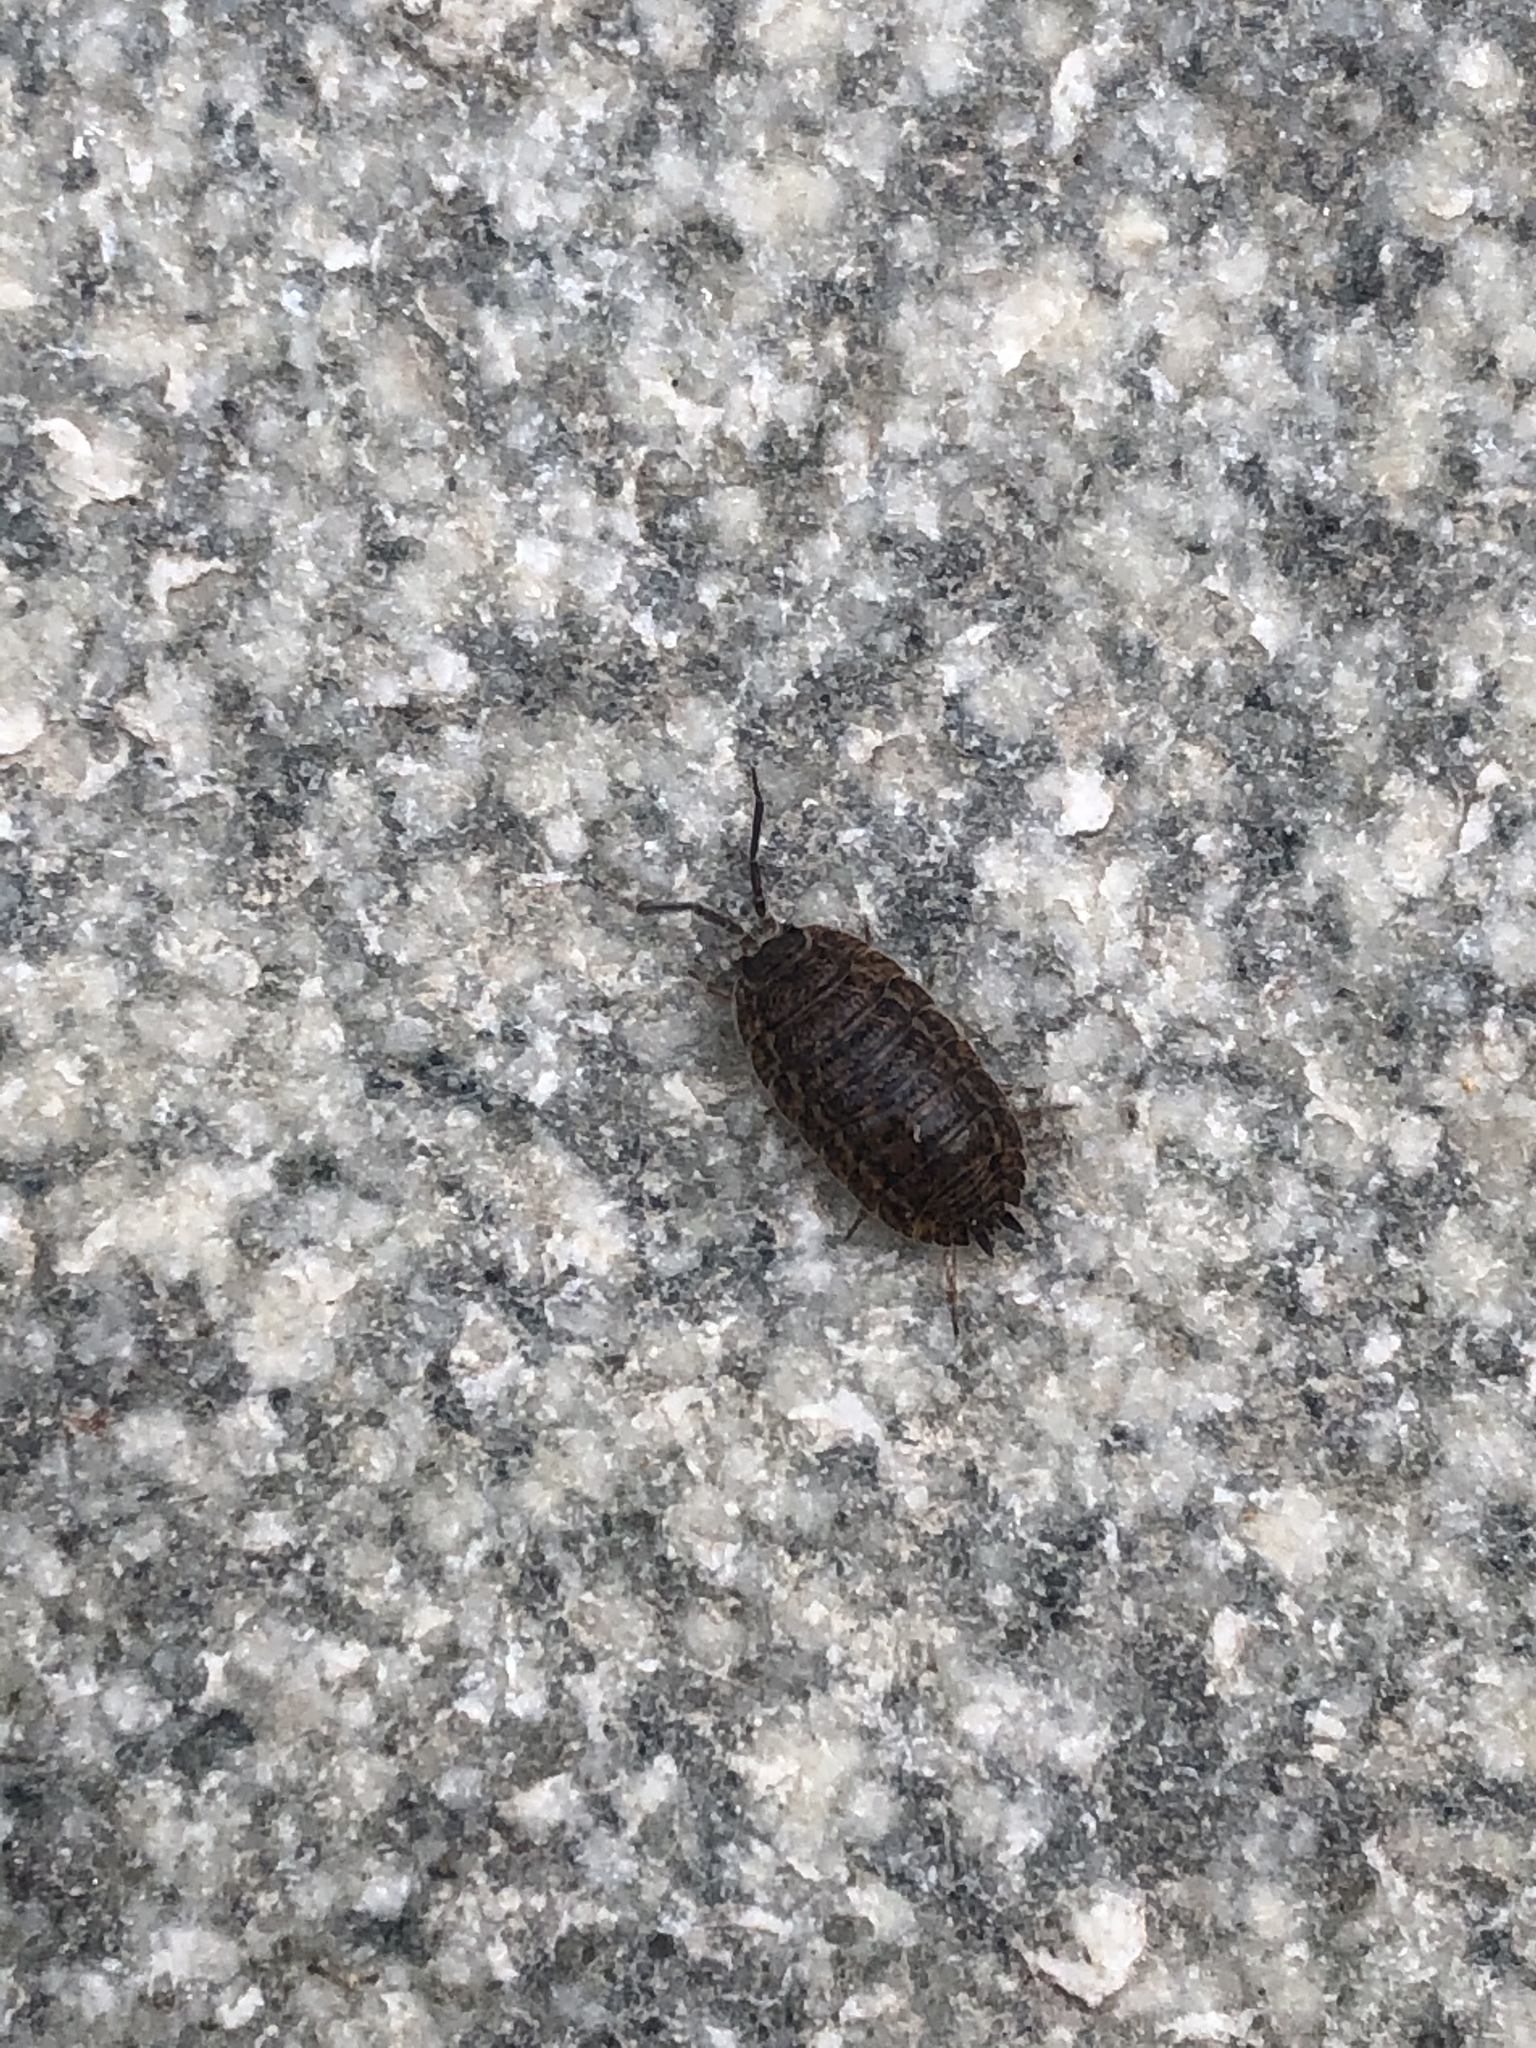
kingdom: Animalia
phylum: Arthropoda
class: Malacostraca
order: Isopoda
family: Trachelipodidae
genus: Trachelipus
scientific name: Trachelipus rathkii
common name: Isopod
